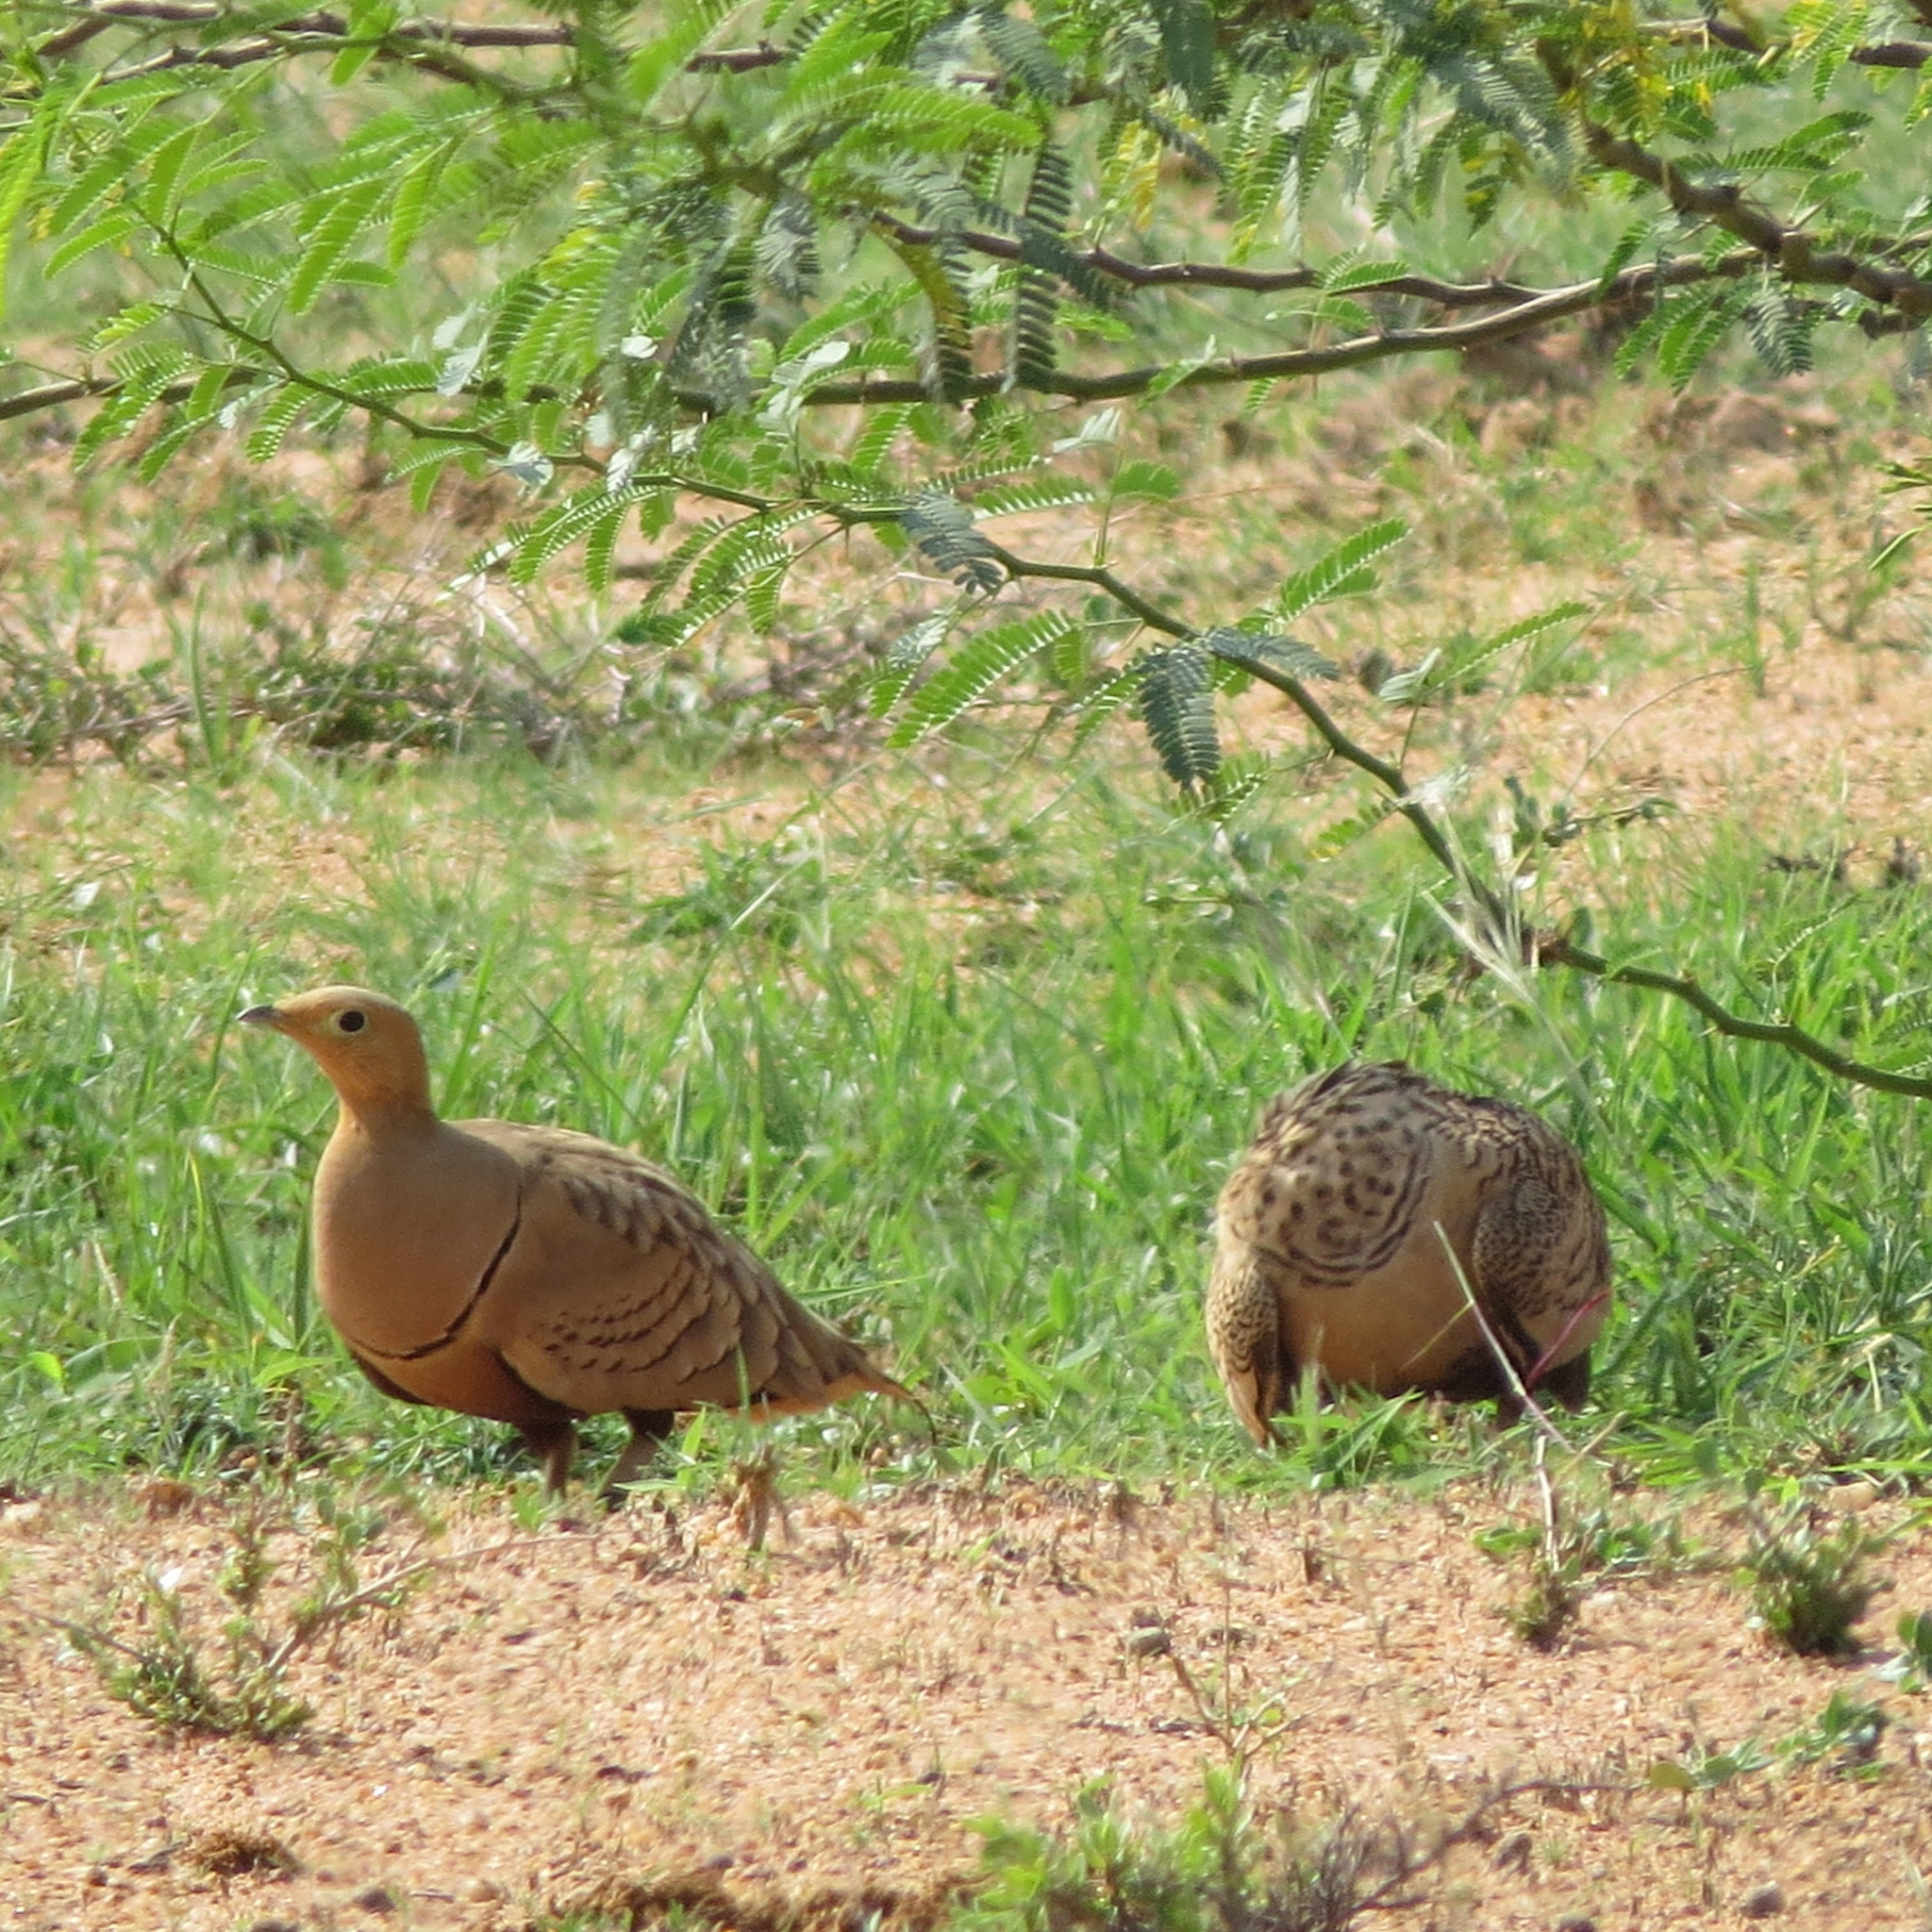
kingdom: Animalia
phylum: Chordata
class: Aves
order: Pteroclidiformes
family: Pteroclididae
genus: Pterocles
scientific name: Pterocles exustus
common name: Chestnut-bellied sandgrouse
